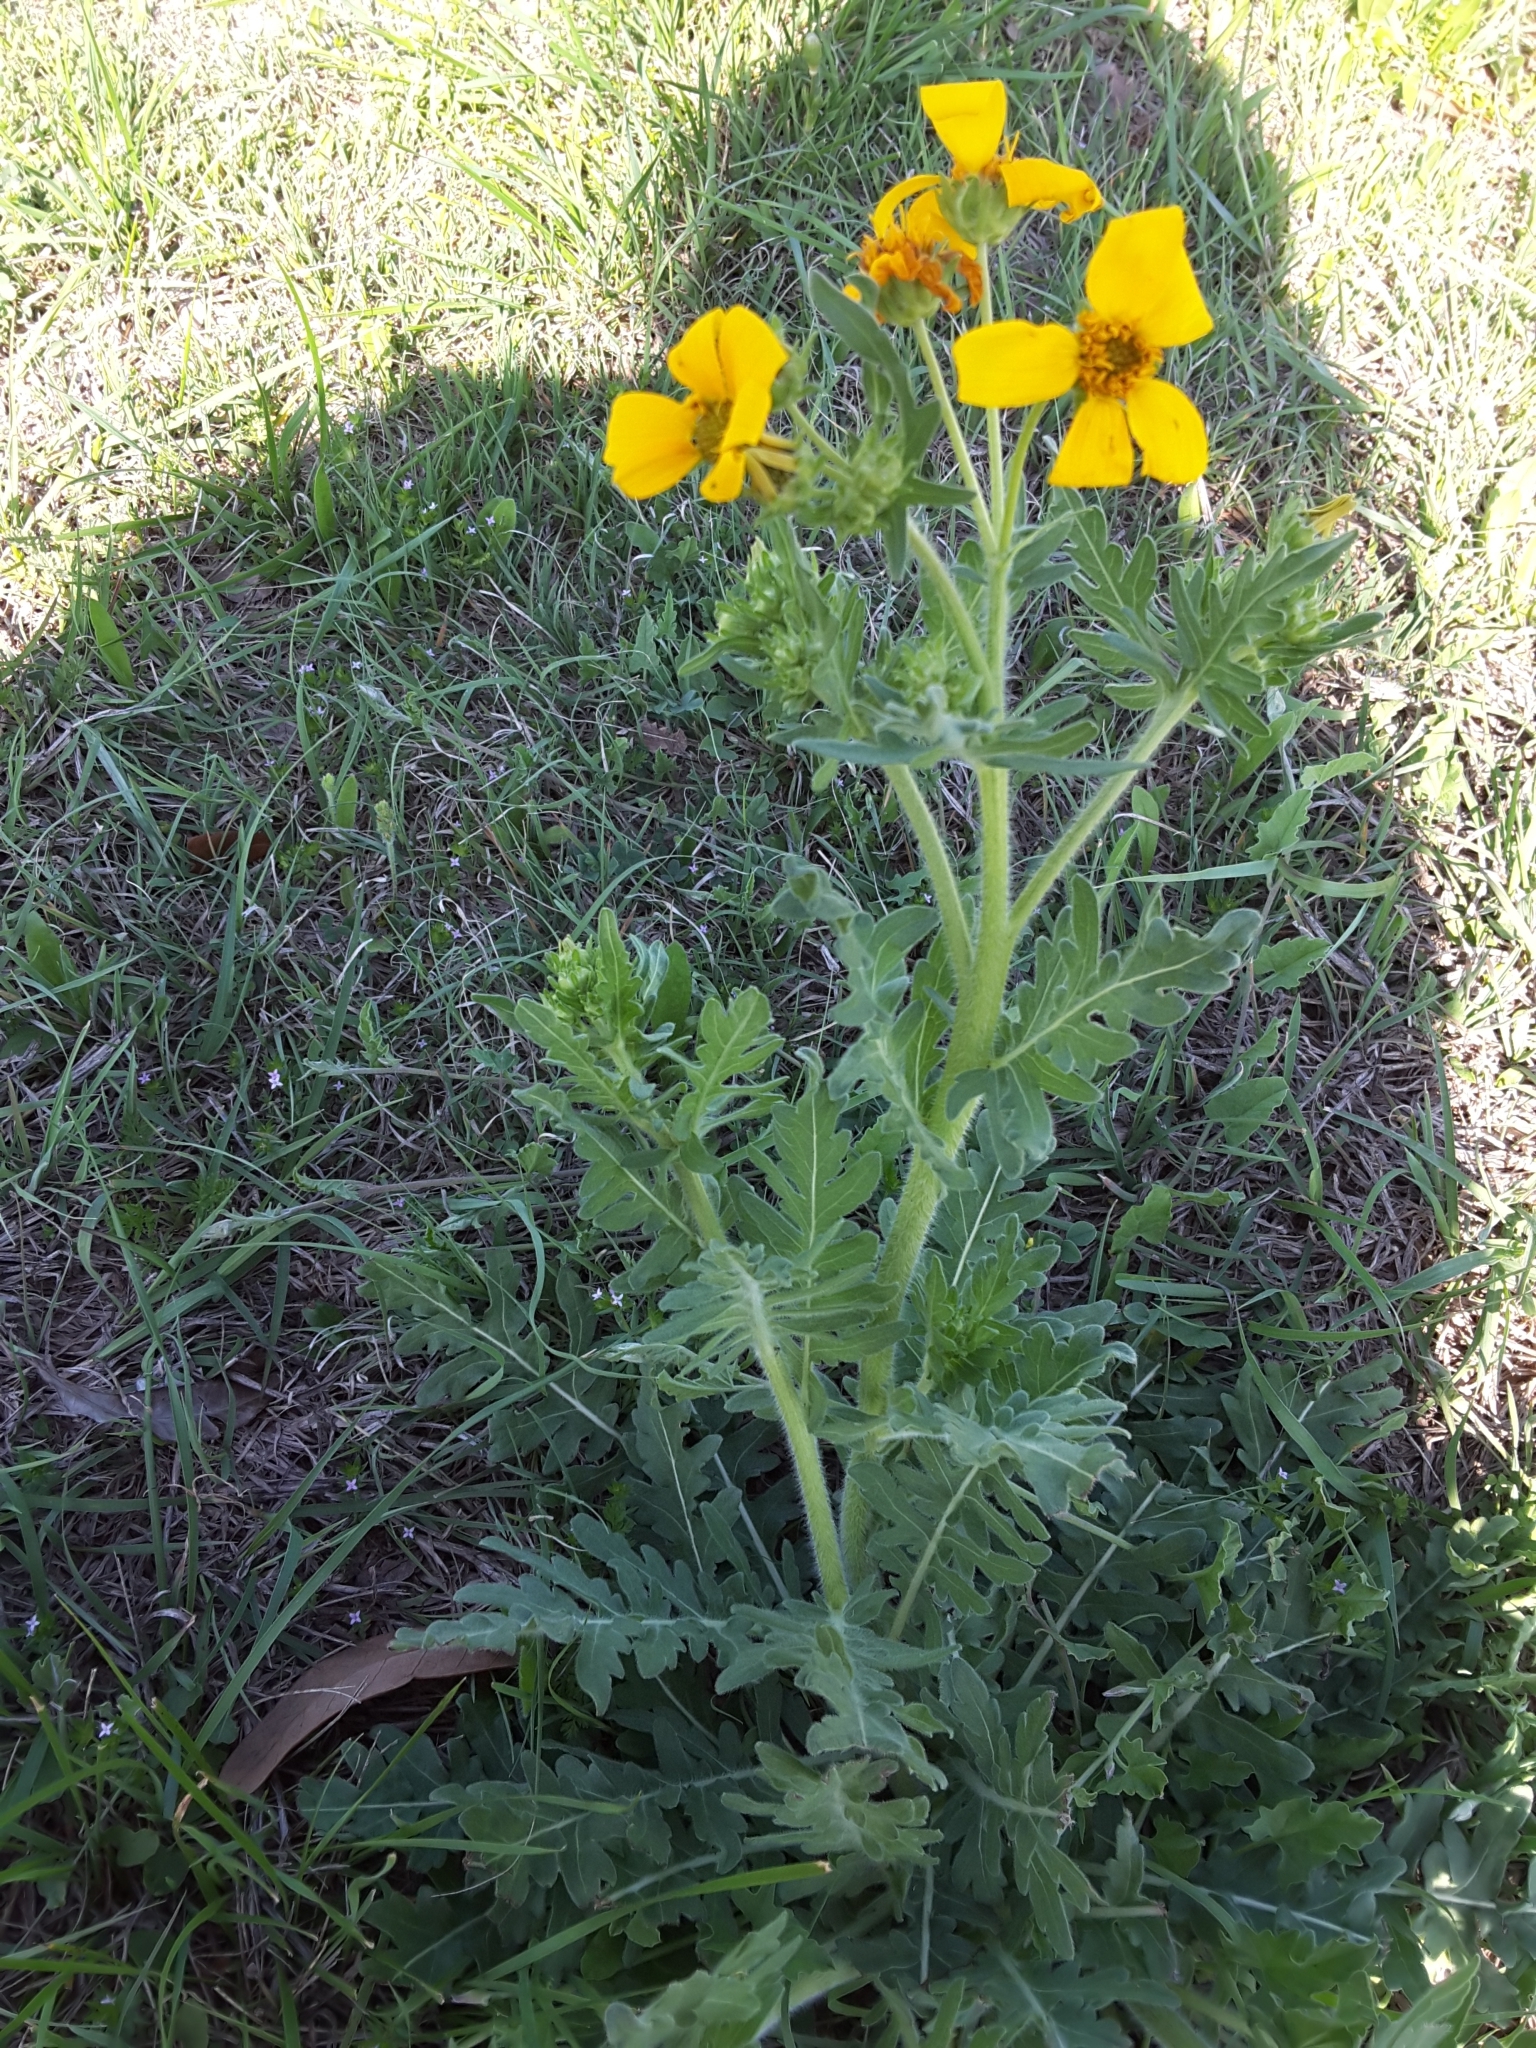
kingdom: Plantae
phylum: Tracheophyta
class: Magnoliopsida
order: Asterales
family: Asteraceae
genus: Engelmannia
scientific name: Engelmannia peristenia
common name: Engelmann's daisy
